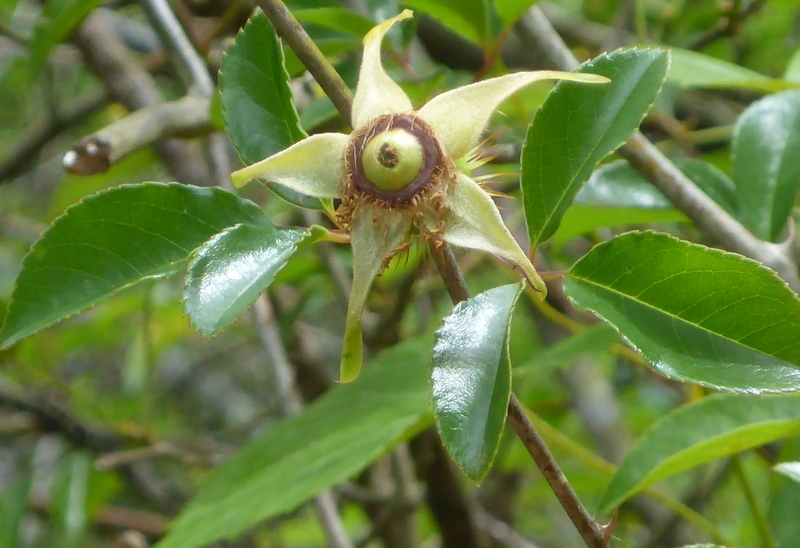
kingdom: Plantae
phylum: Tracheophyta
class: Magnoliopsida
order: Rosales
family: Rosaceae
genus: Rosa
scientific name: Rosa laevigata
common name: Cherokee rose
